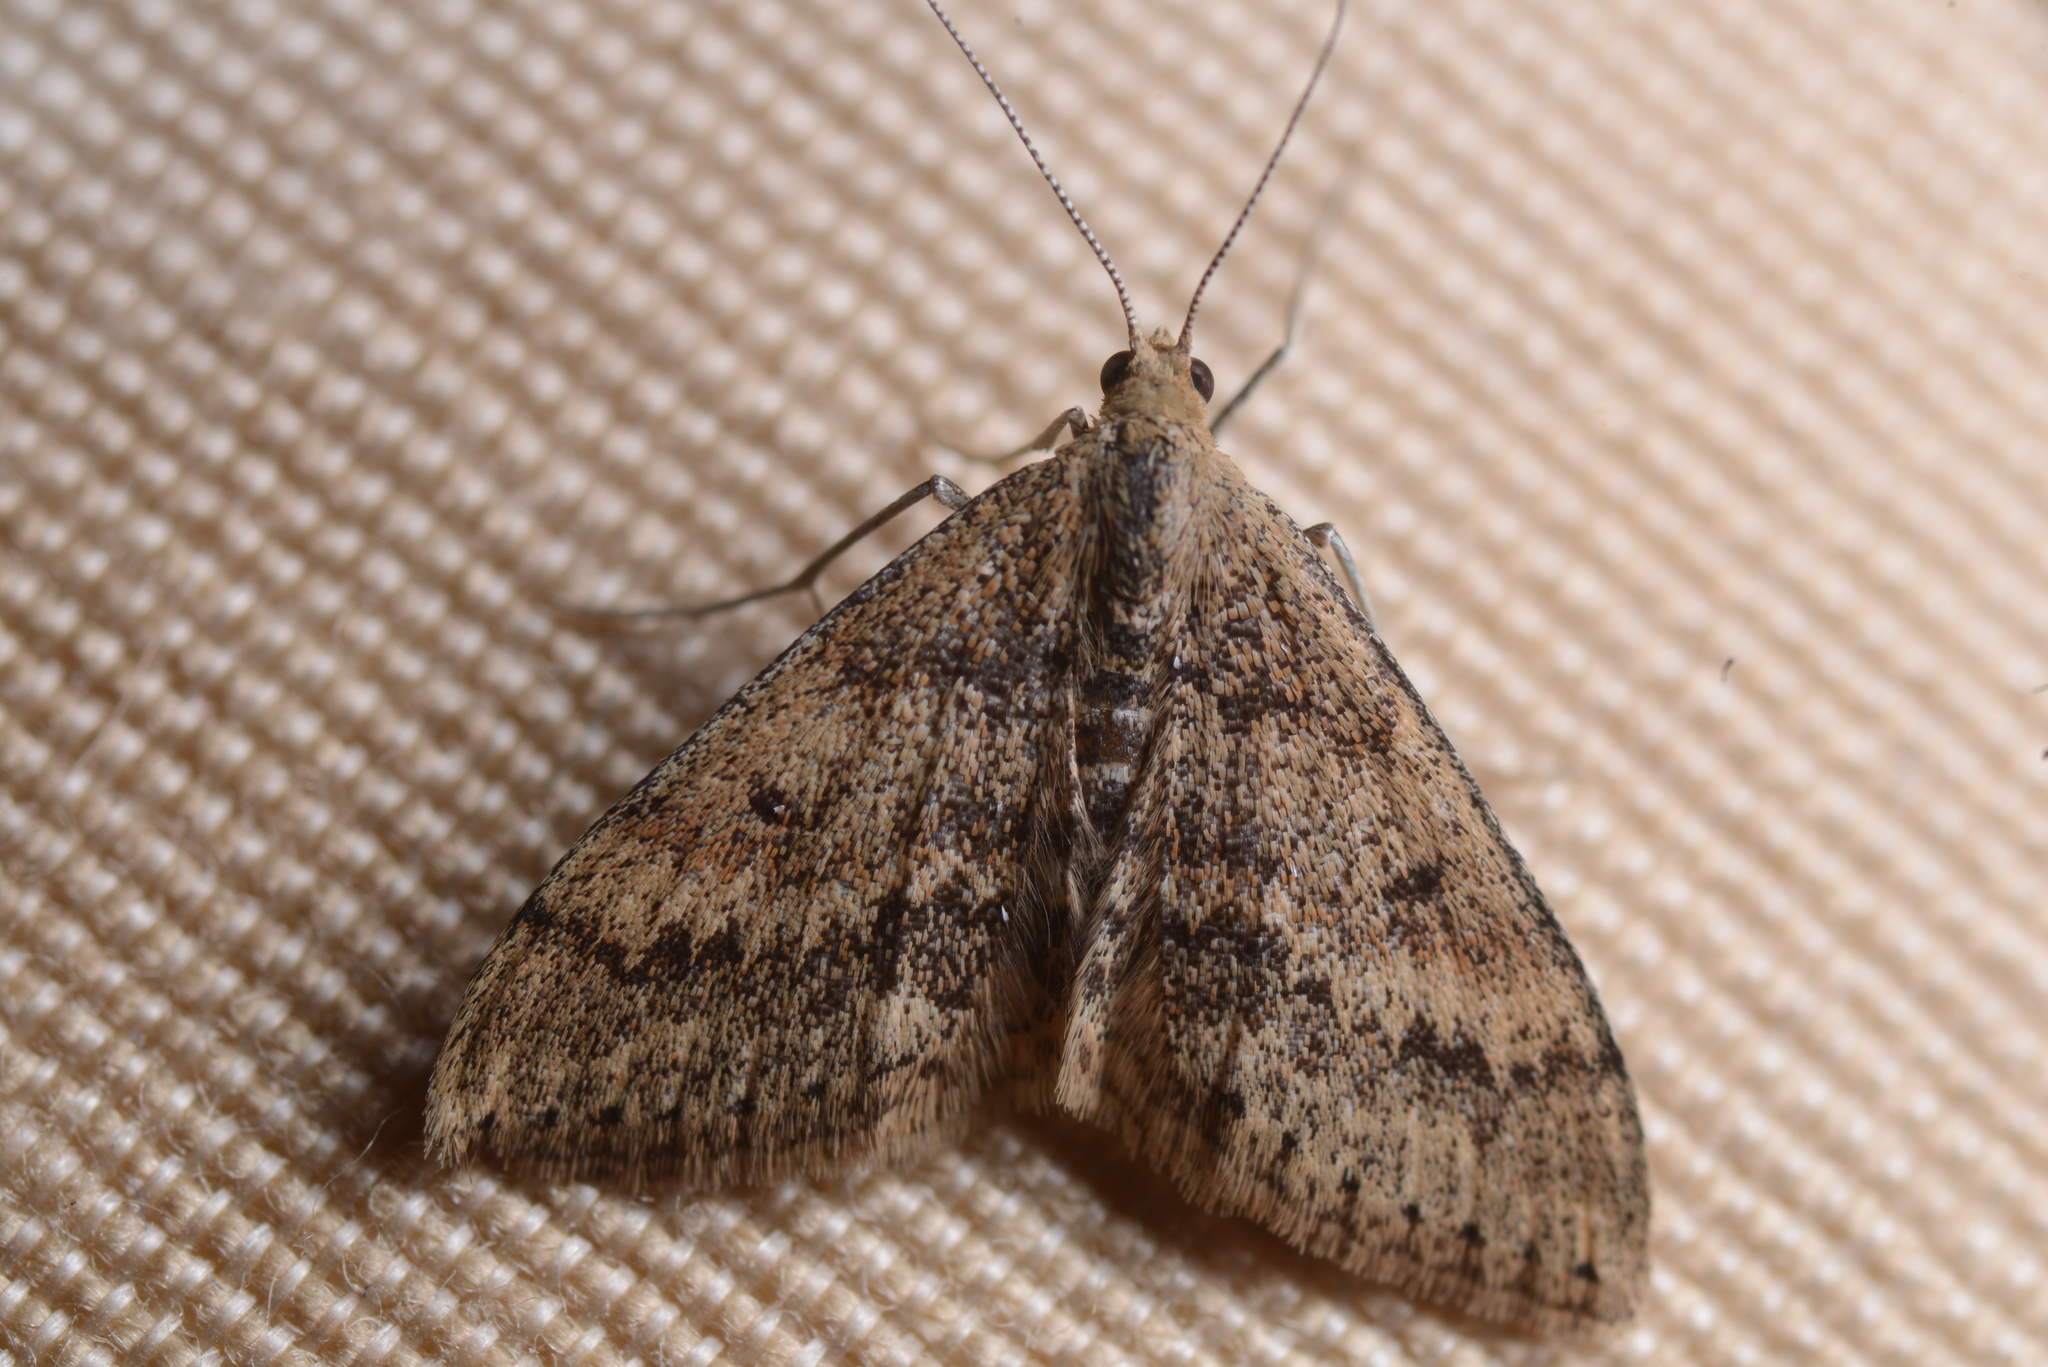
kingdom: Animalia
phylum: Arthropoda
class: Insecta
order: Lepidoptera
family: Geometridae
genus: Scopula
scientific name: Scopula rubraria
